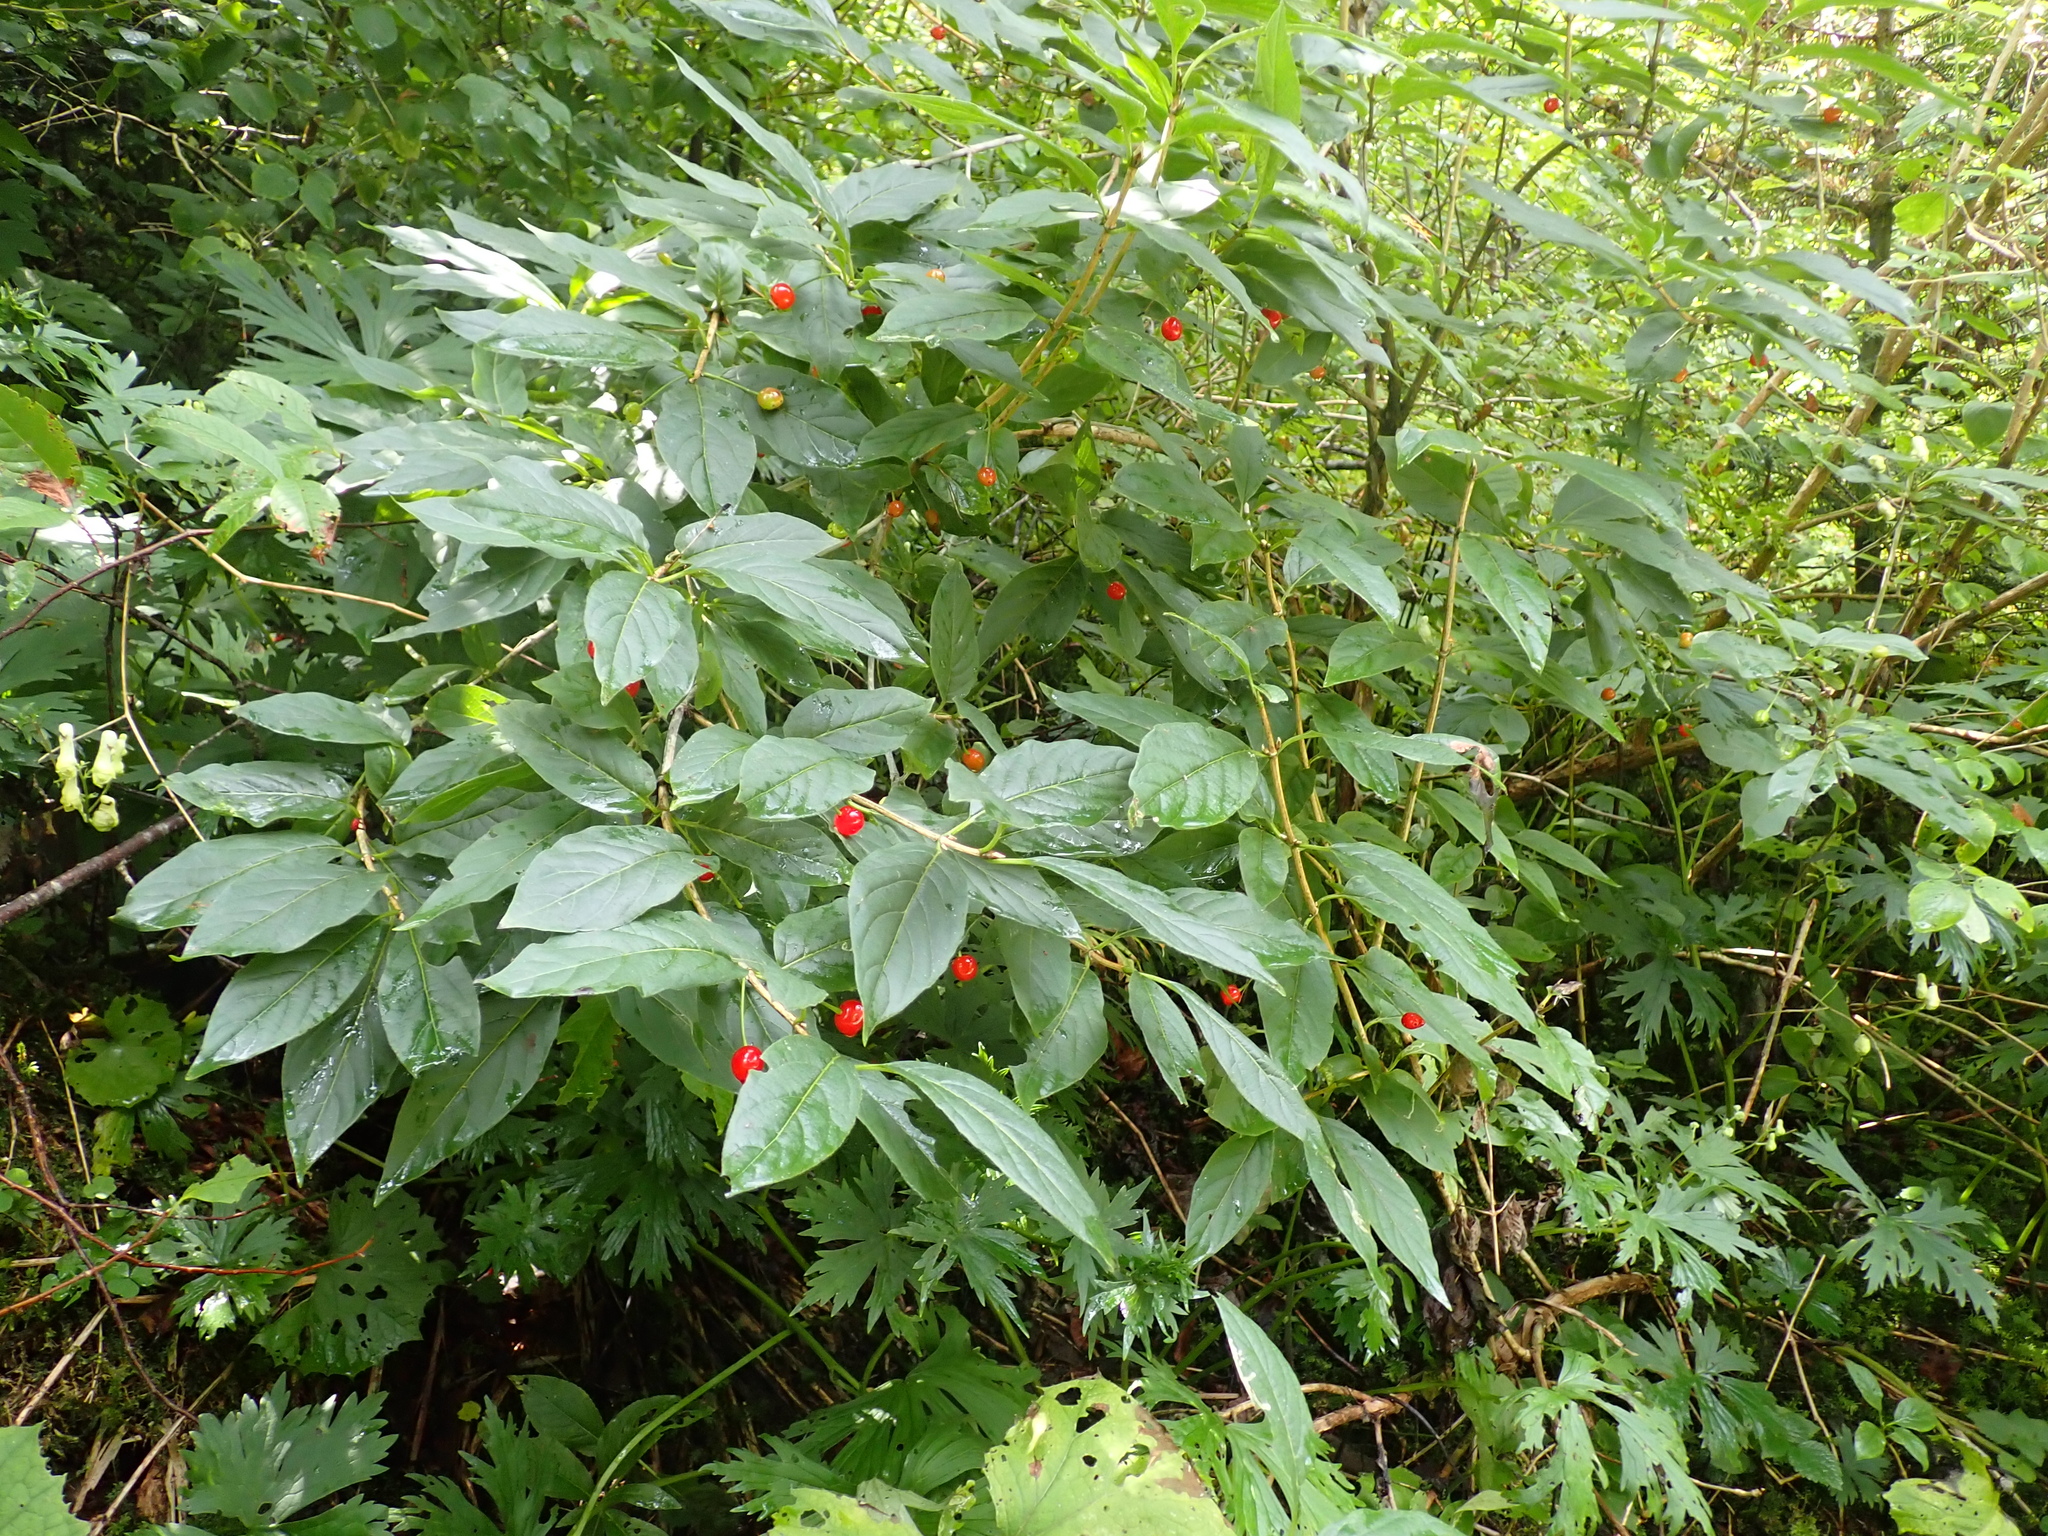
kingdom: Plantae
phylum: Tracheophyta
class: Magnoliopsida
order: Dipsacales
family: Caprifoliaceae
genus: Lonicera
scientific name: Lonicera alpigena
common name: Alpine honeysuckle
